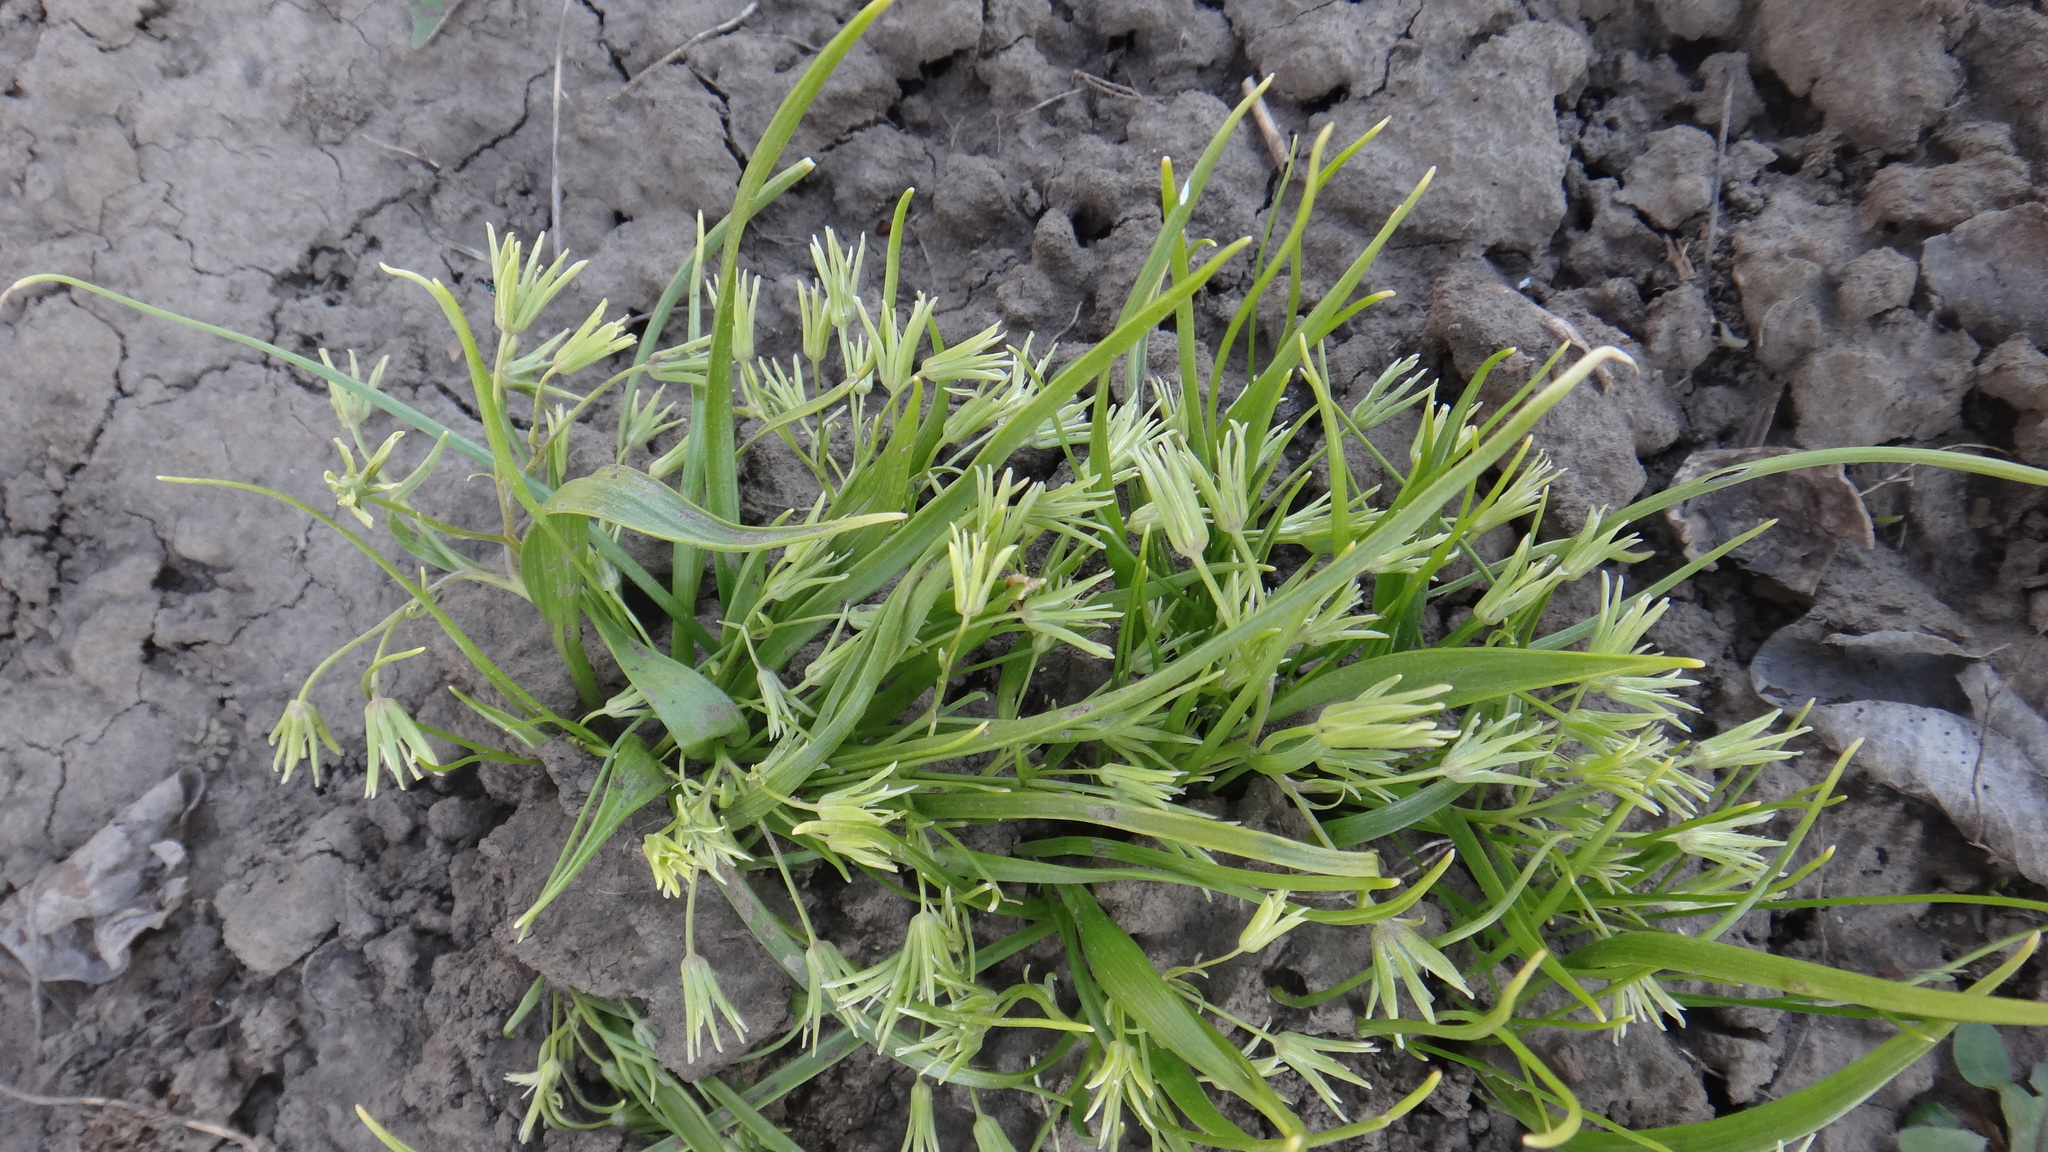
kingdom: Plantae
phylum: Tracheophyta
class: Liliopsida
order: Liliales
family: Liliaceae
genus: Gagea
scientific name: Gagea minima
